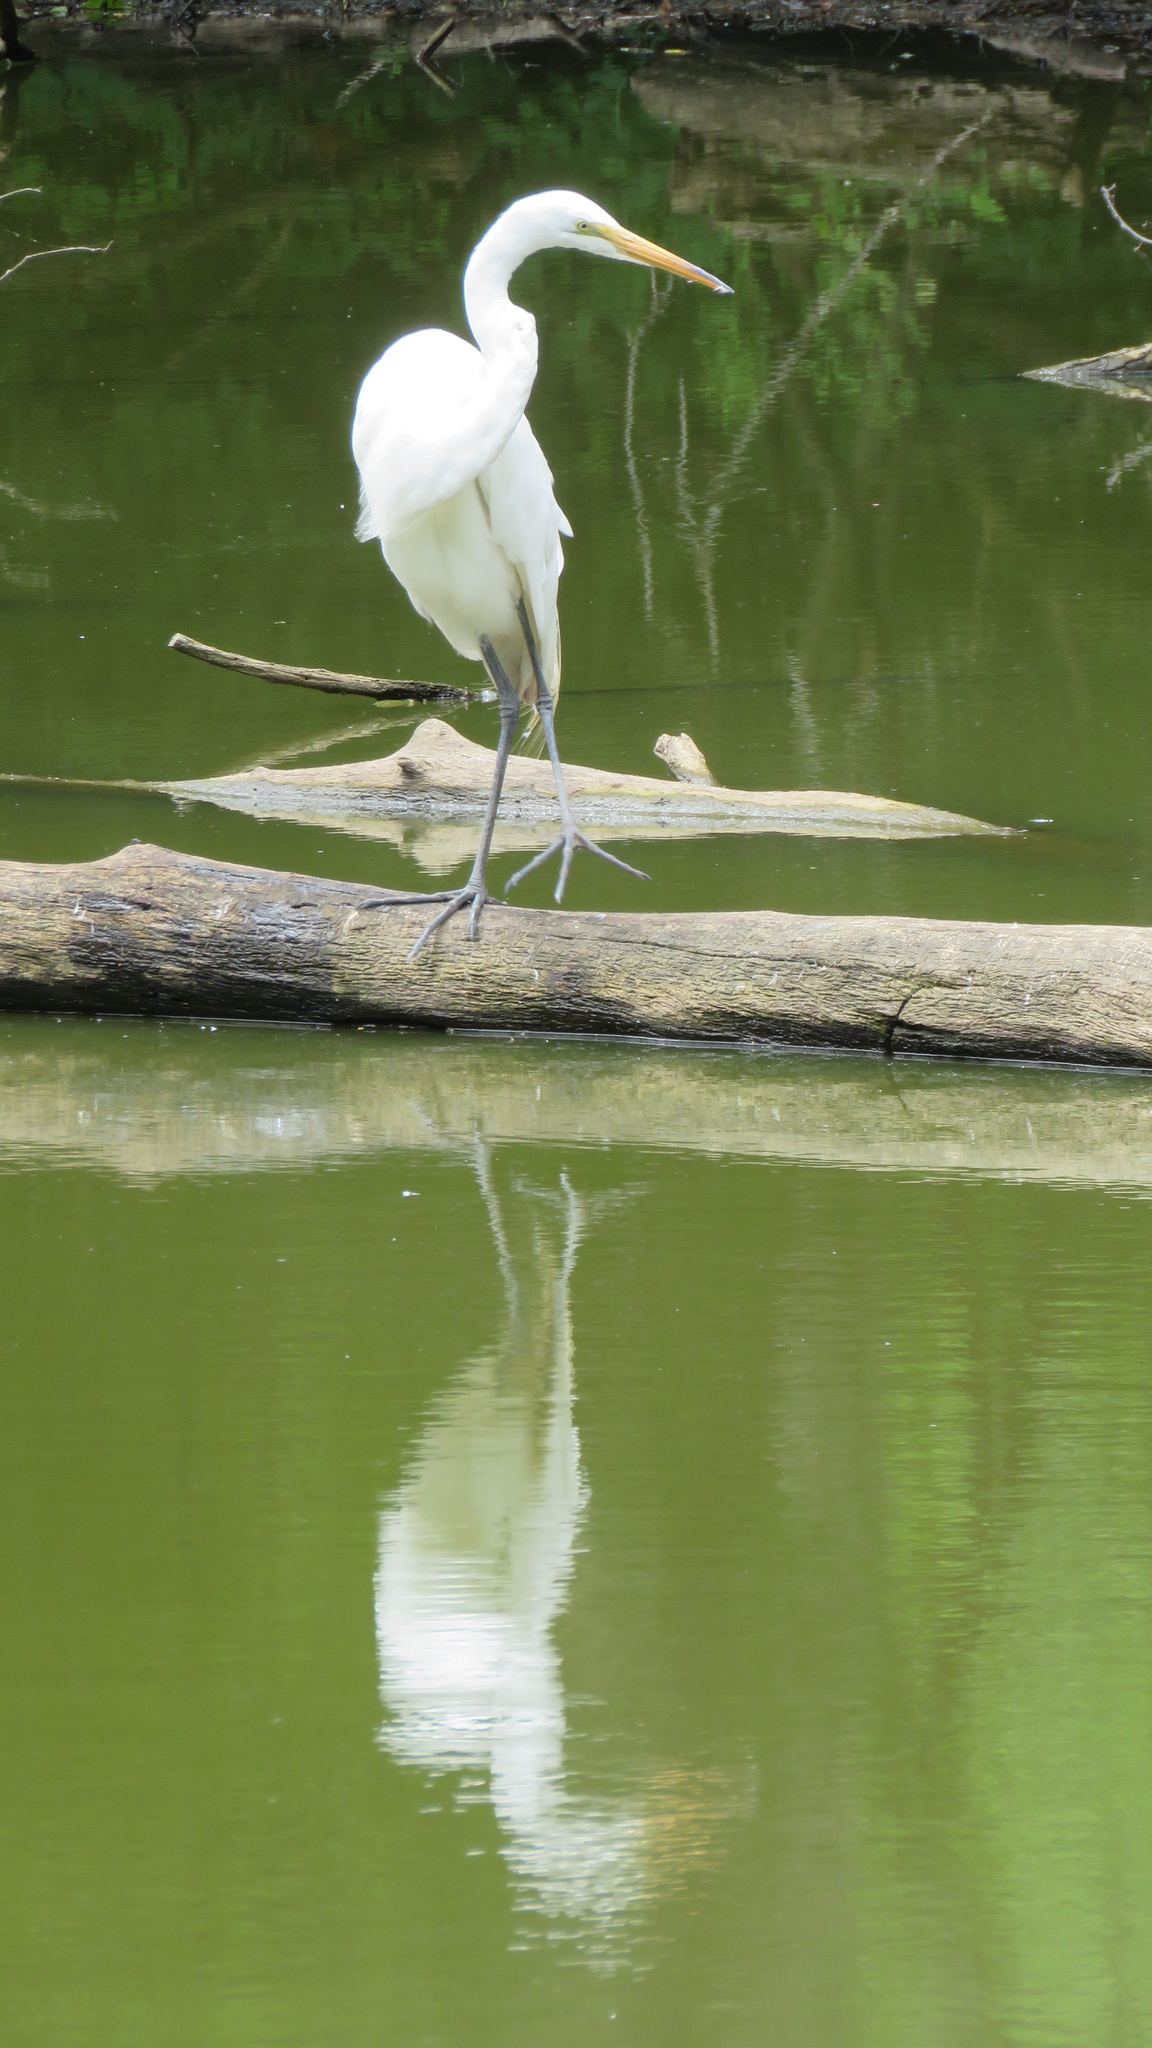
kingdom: Animalia
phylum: Chordata
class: Aves
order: Pelecaniformes
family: Ardeidae
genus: Ardea
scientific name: Ardea alba
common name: Great egret
